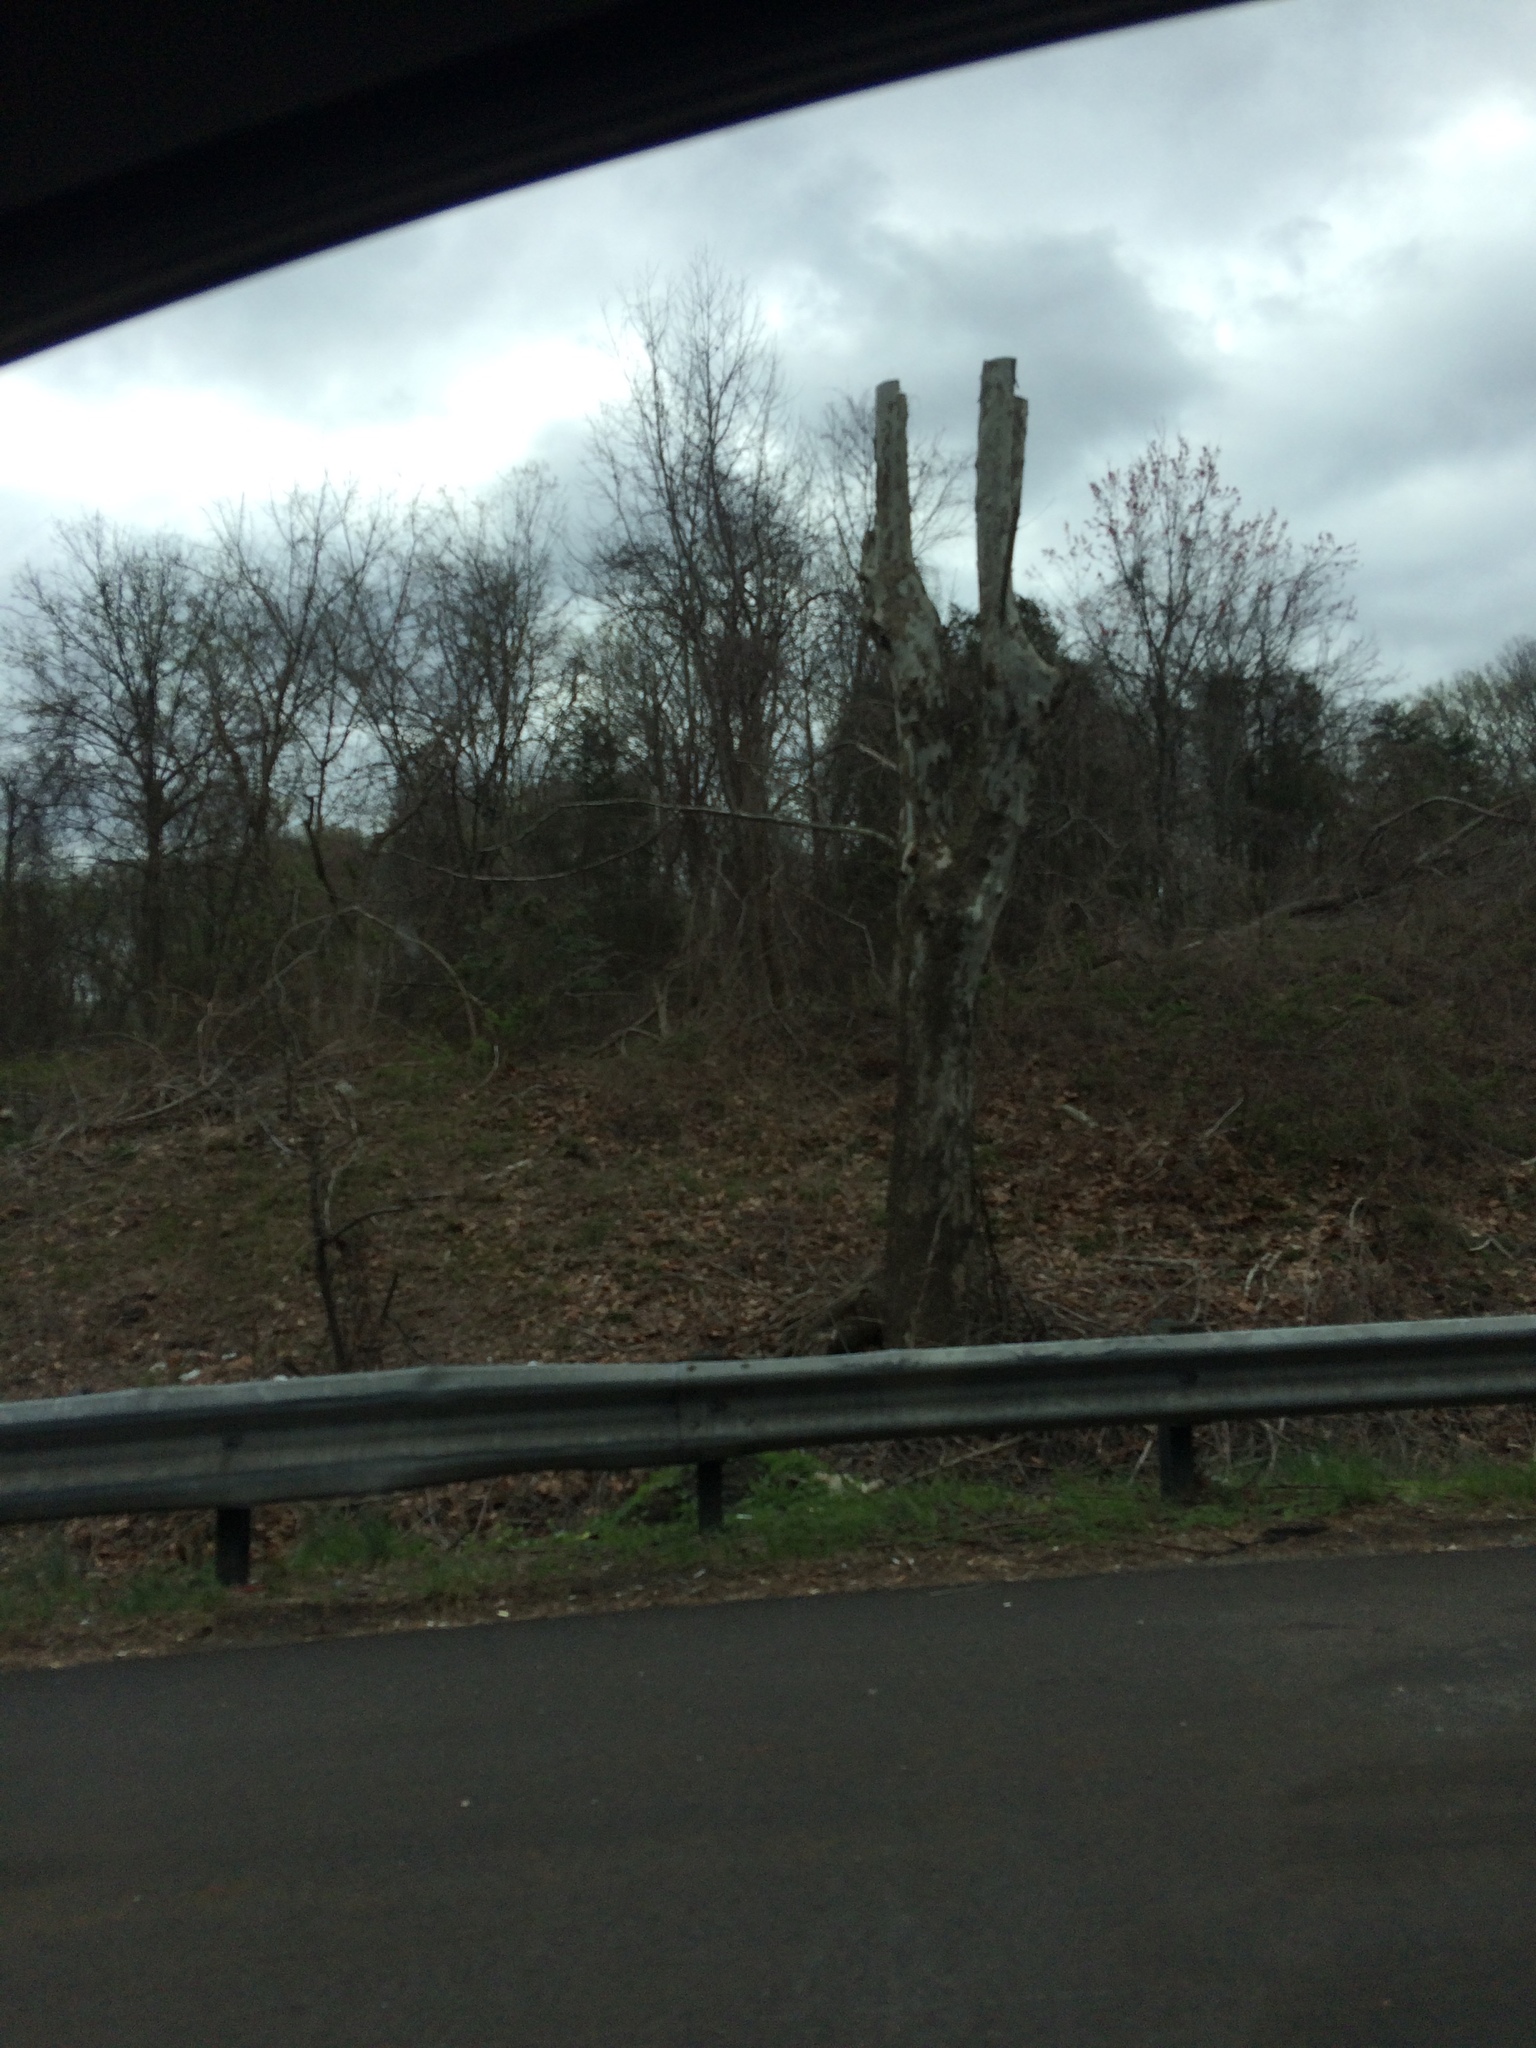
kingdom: Plantae
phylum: Tracheophyta
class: Magnoliopsida
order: Proteales
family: Platanaceae
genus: Platanus
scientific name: Platanus occidentalis
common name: American sycamore
